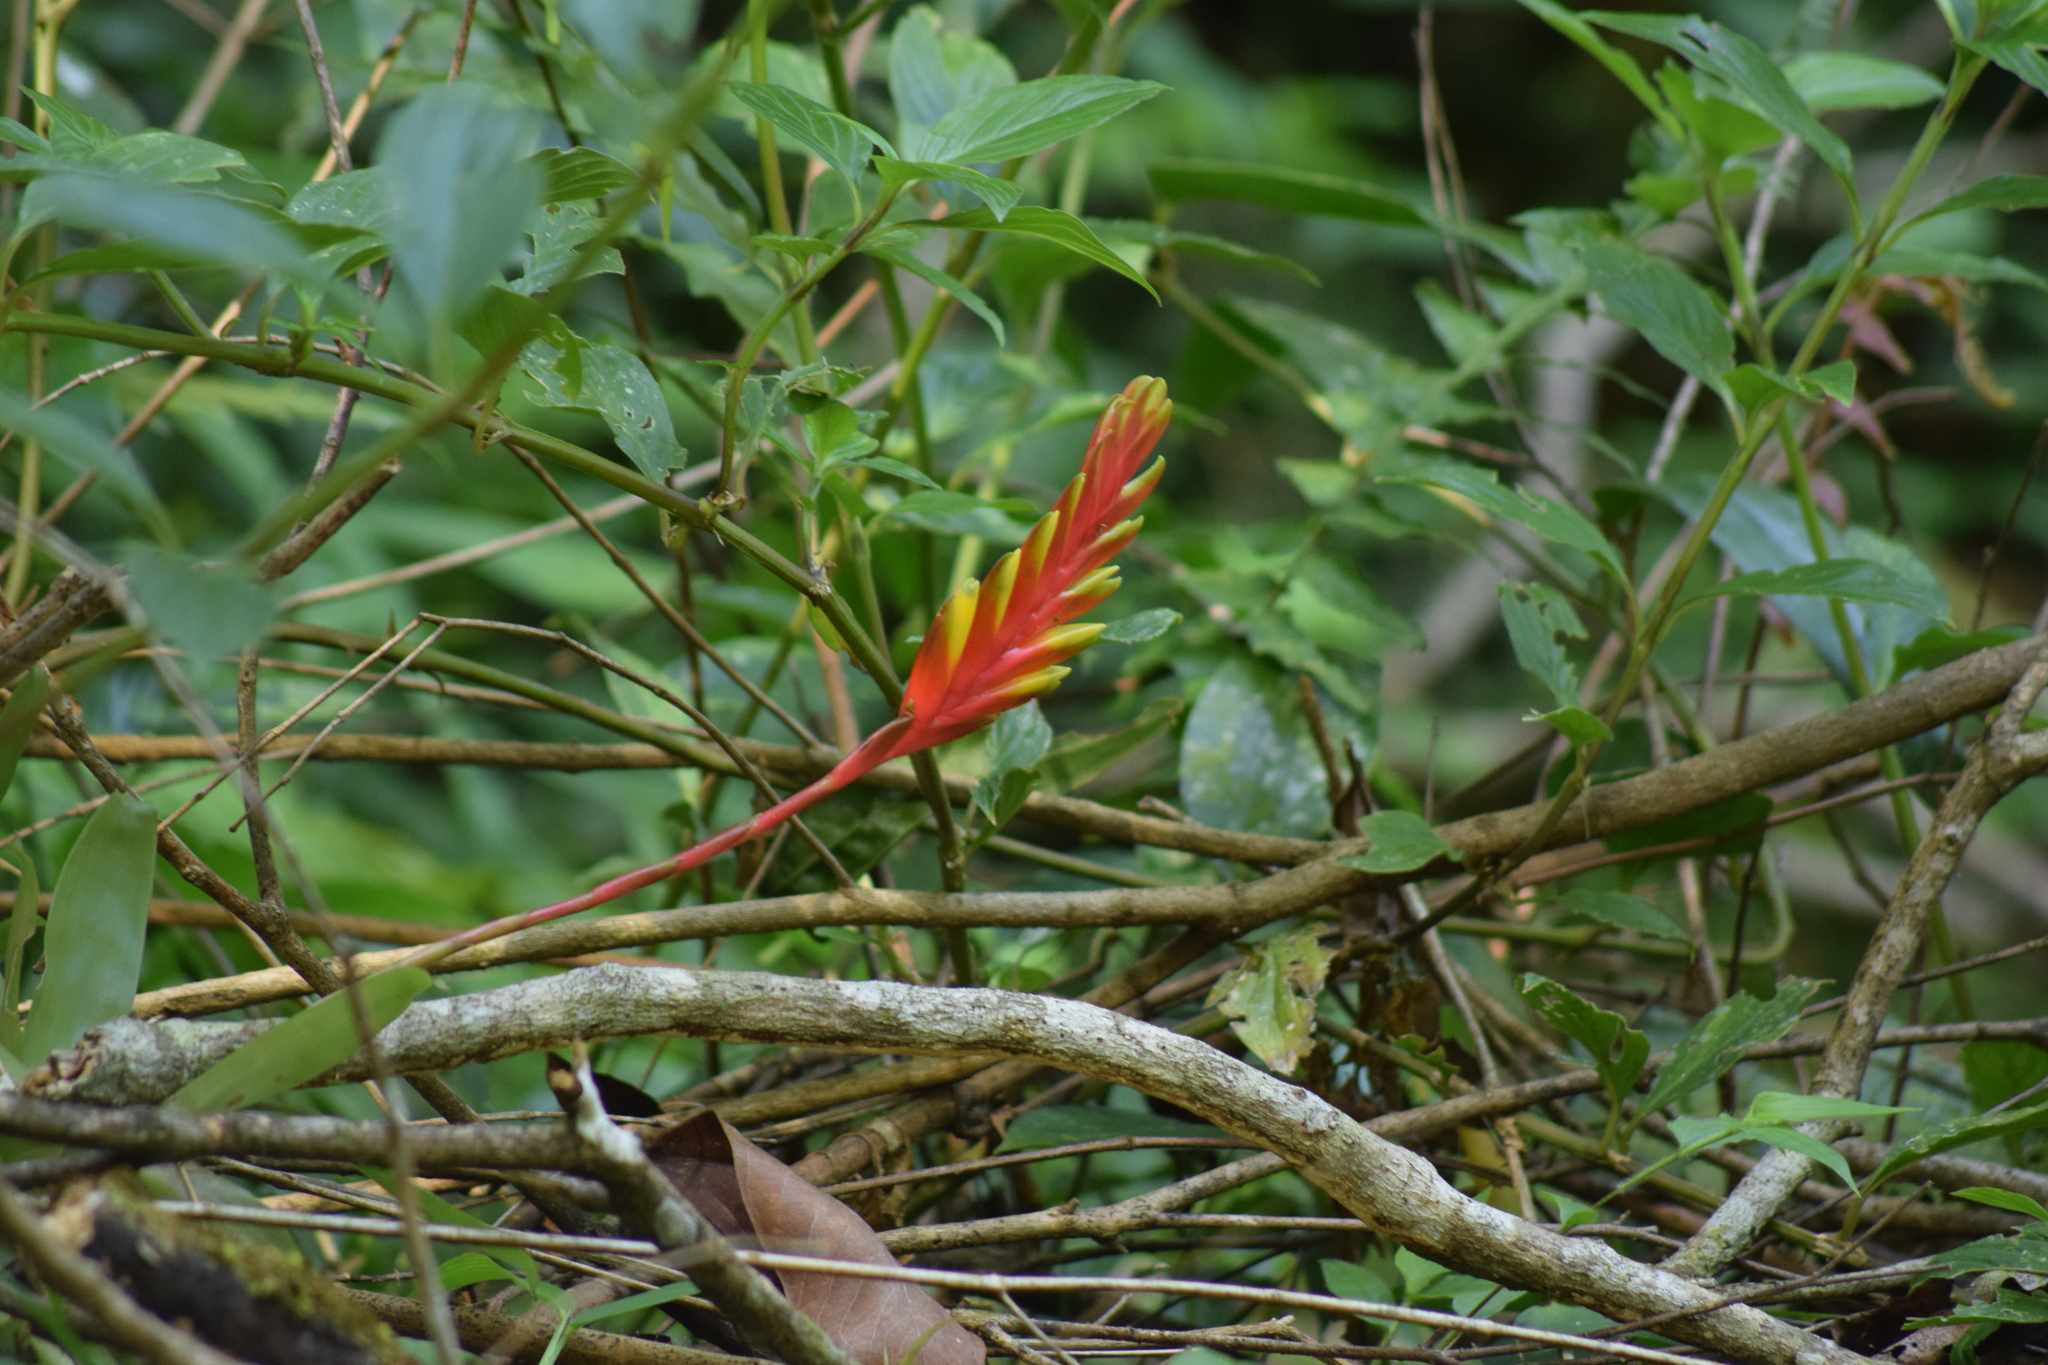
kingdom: Plantae
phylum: Tracheophyta
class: Liliopsida
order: Poales
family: Bromeliaceae
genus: Vriesea
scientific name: Vriesea carinata
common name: Lobster-claws
